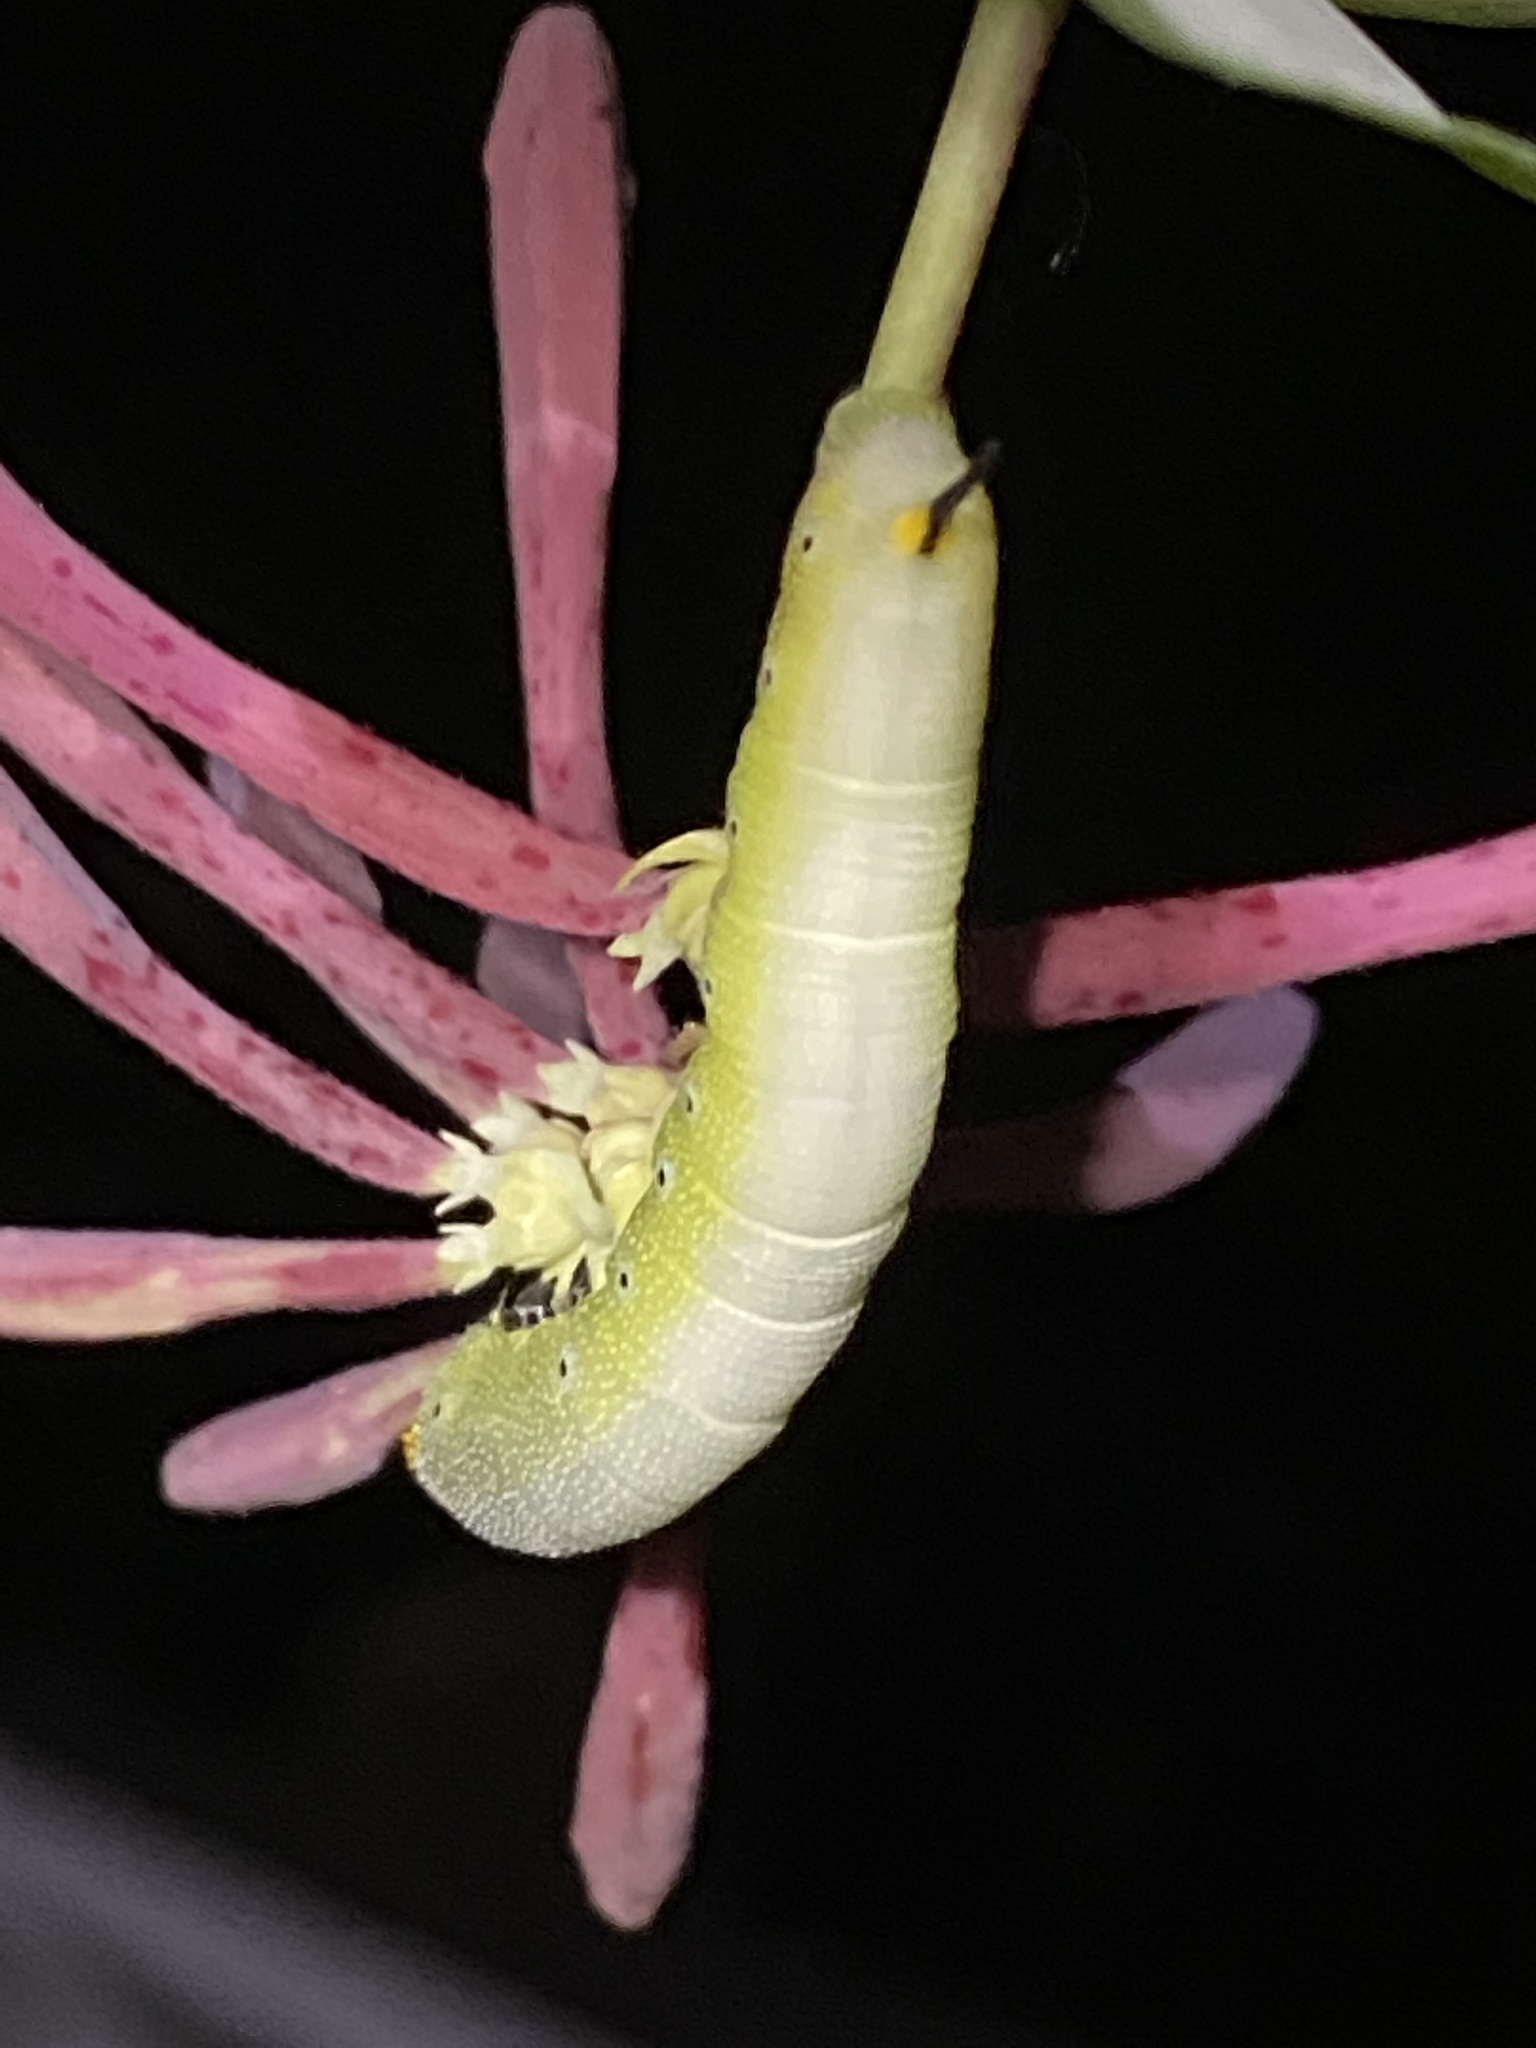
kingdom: Animalia
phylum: Arthropoda
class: Insecta
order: Lepidoptera
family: Sphingidae
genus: Hemaris
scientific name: Hemaris diffinis
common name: Bumblebee moth
